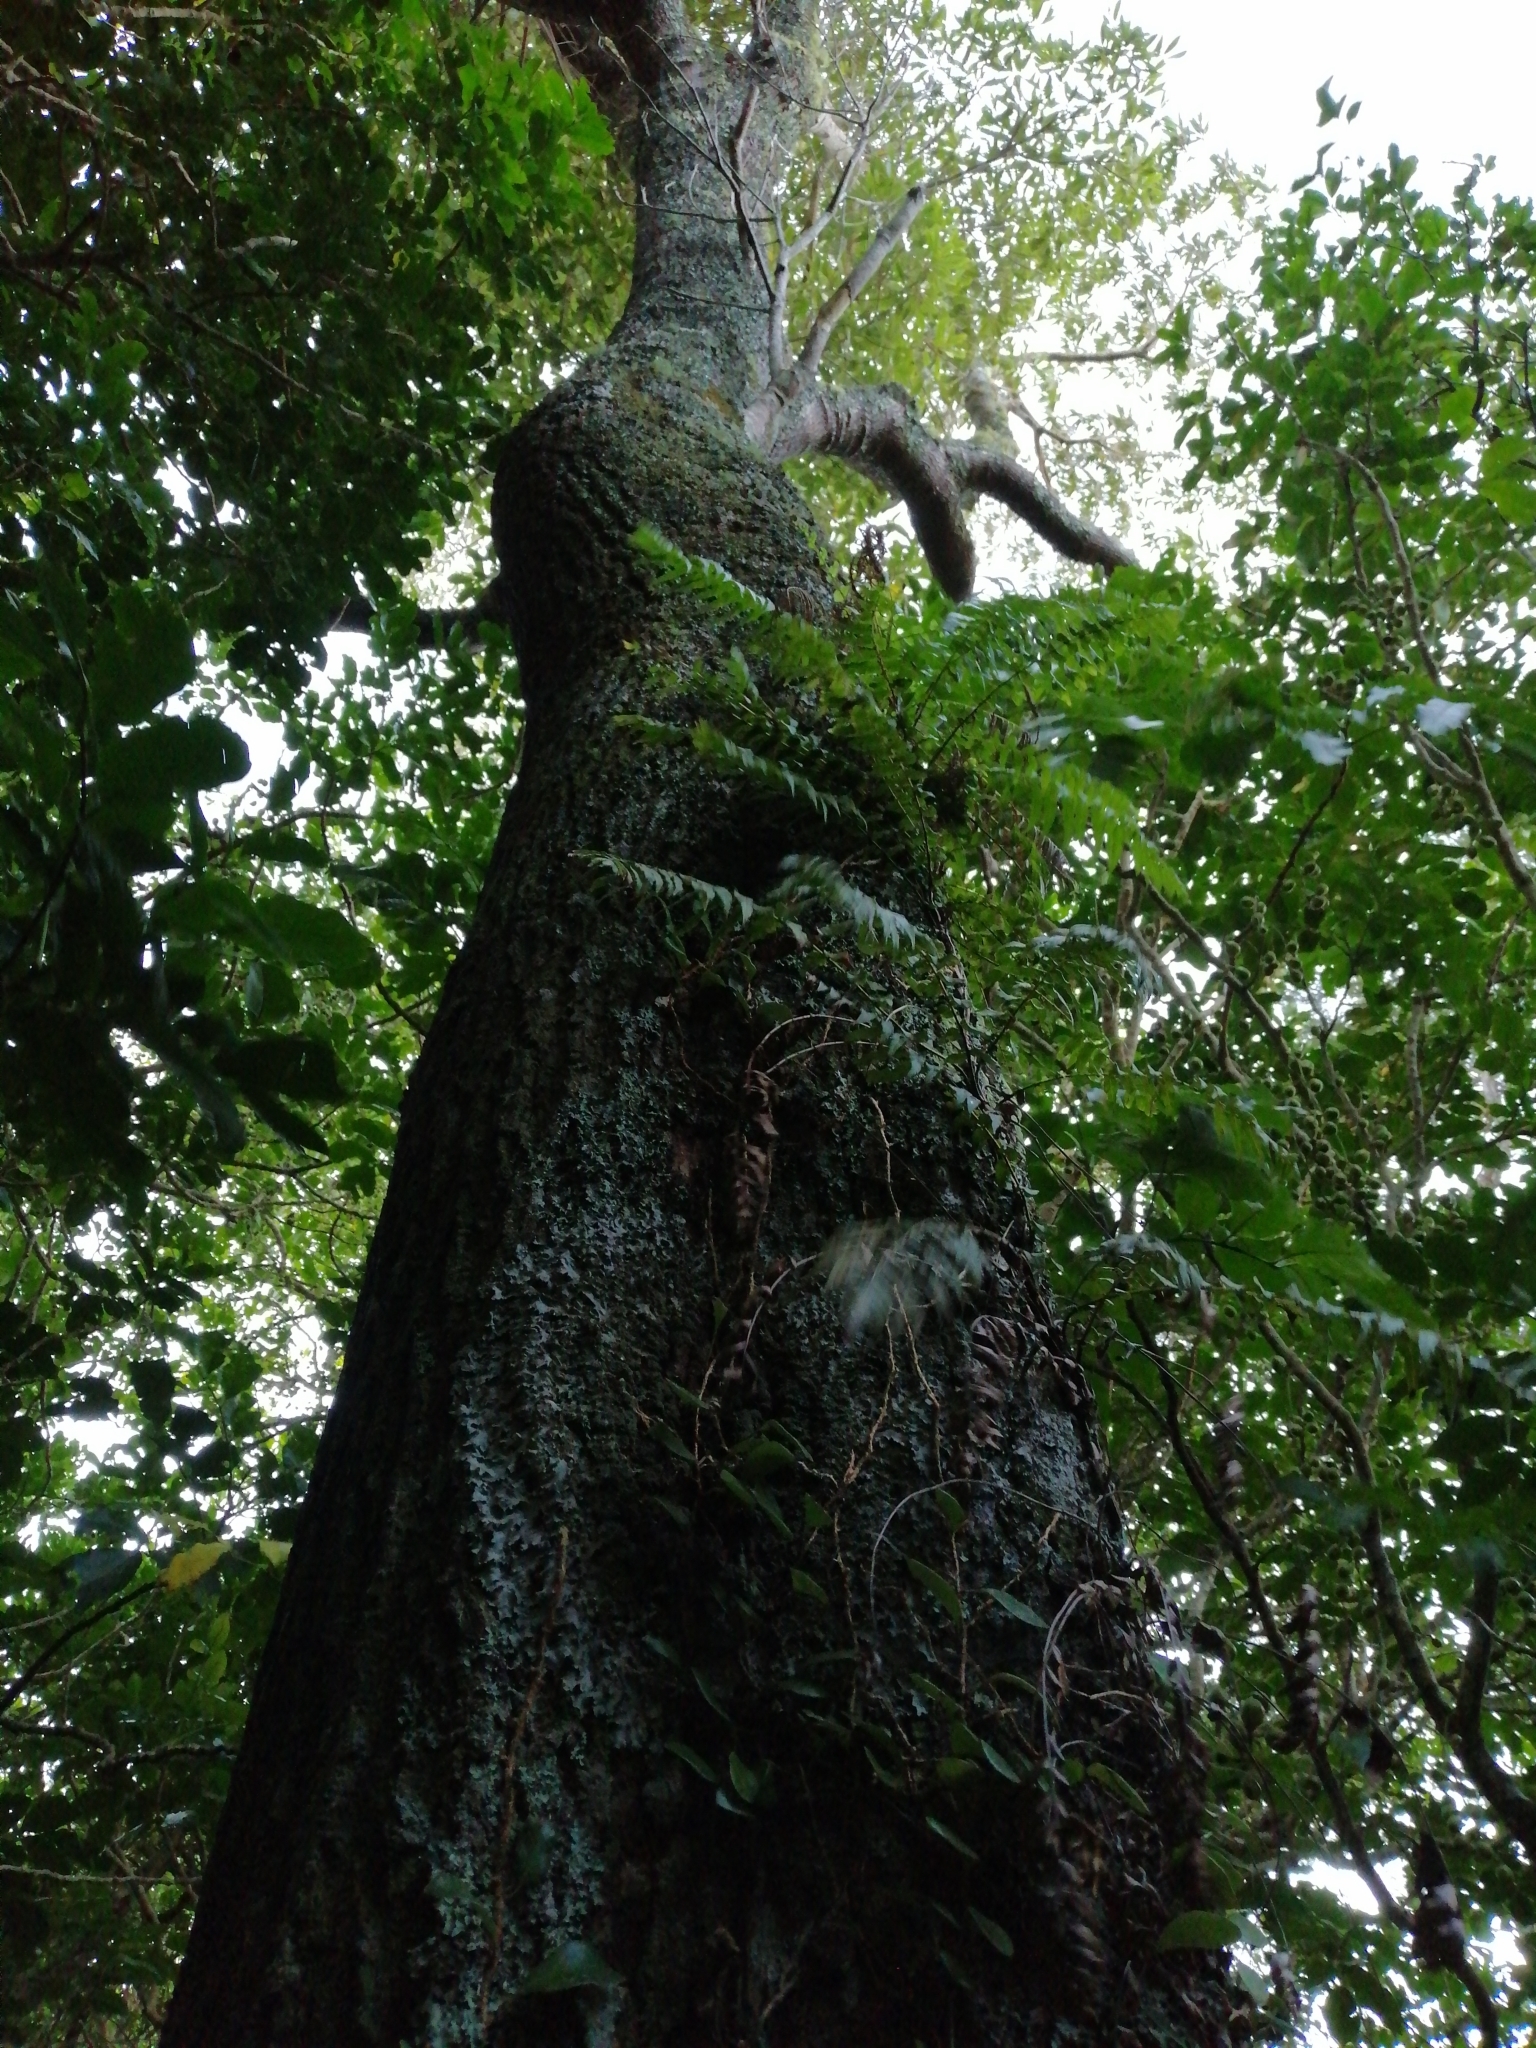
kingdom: Plantae
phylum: Tracheophyta
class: Magnoliopsida
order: Sapindales
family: Sapindaceae
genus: Alectryon
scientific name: Alectryon excelsus
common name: Three kings titoki
